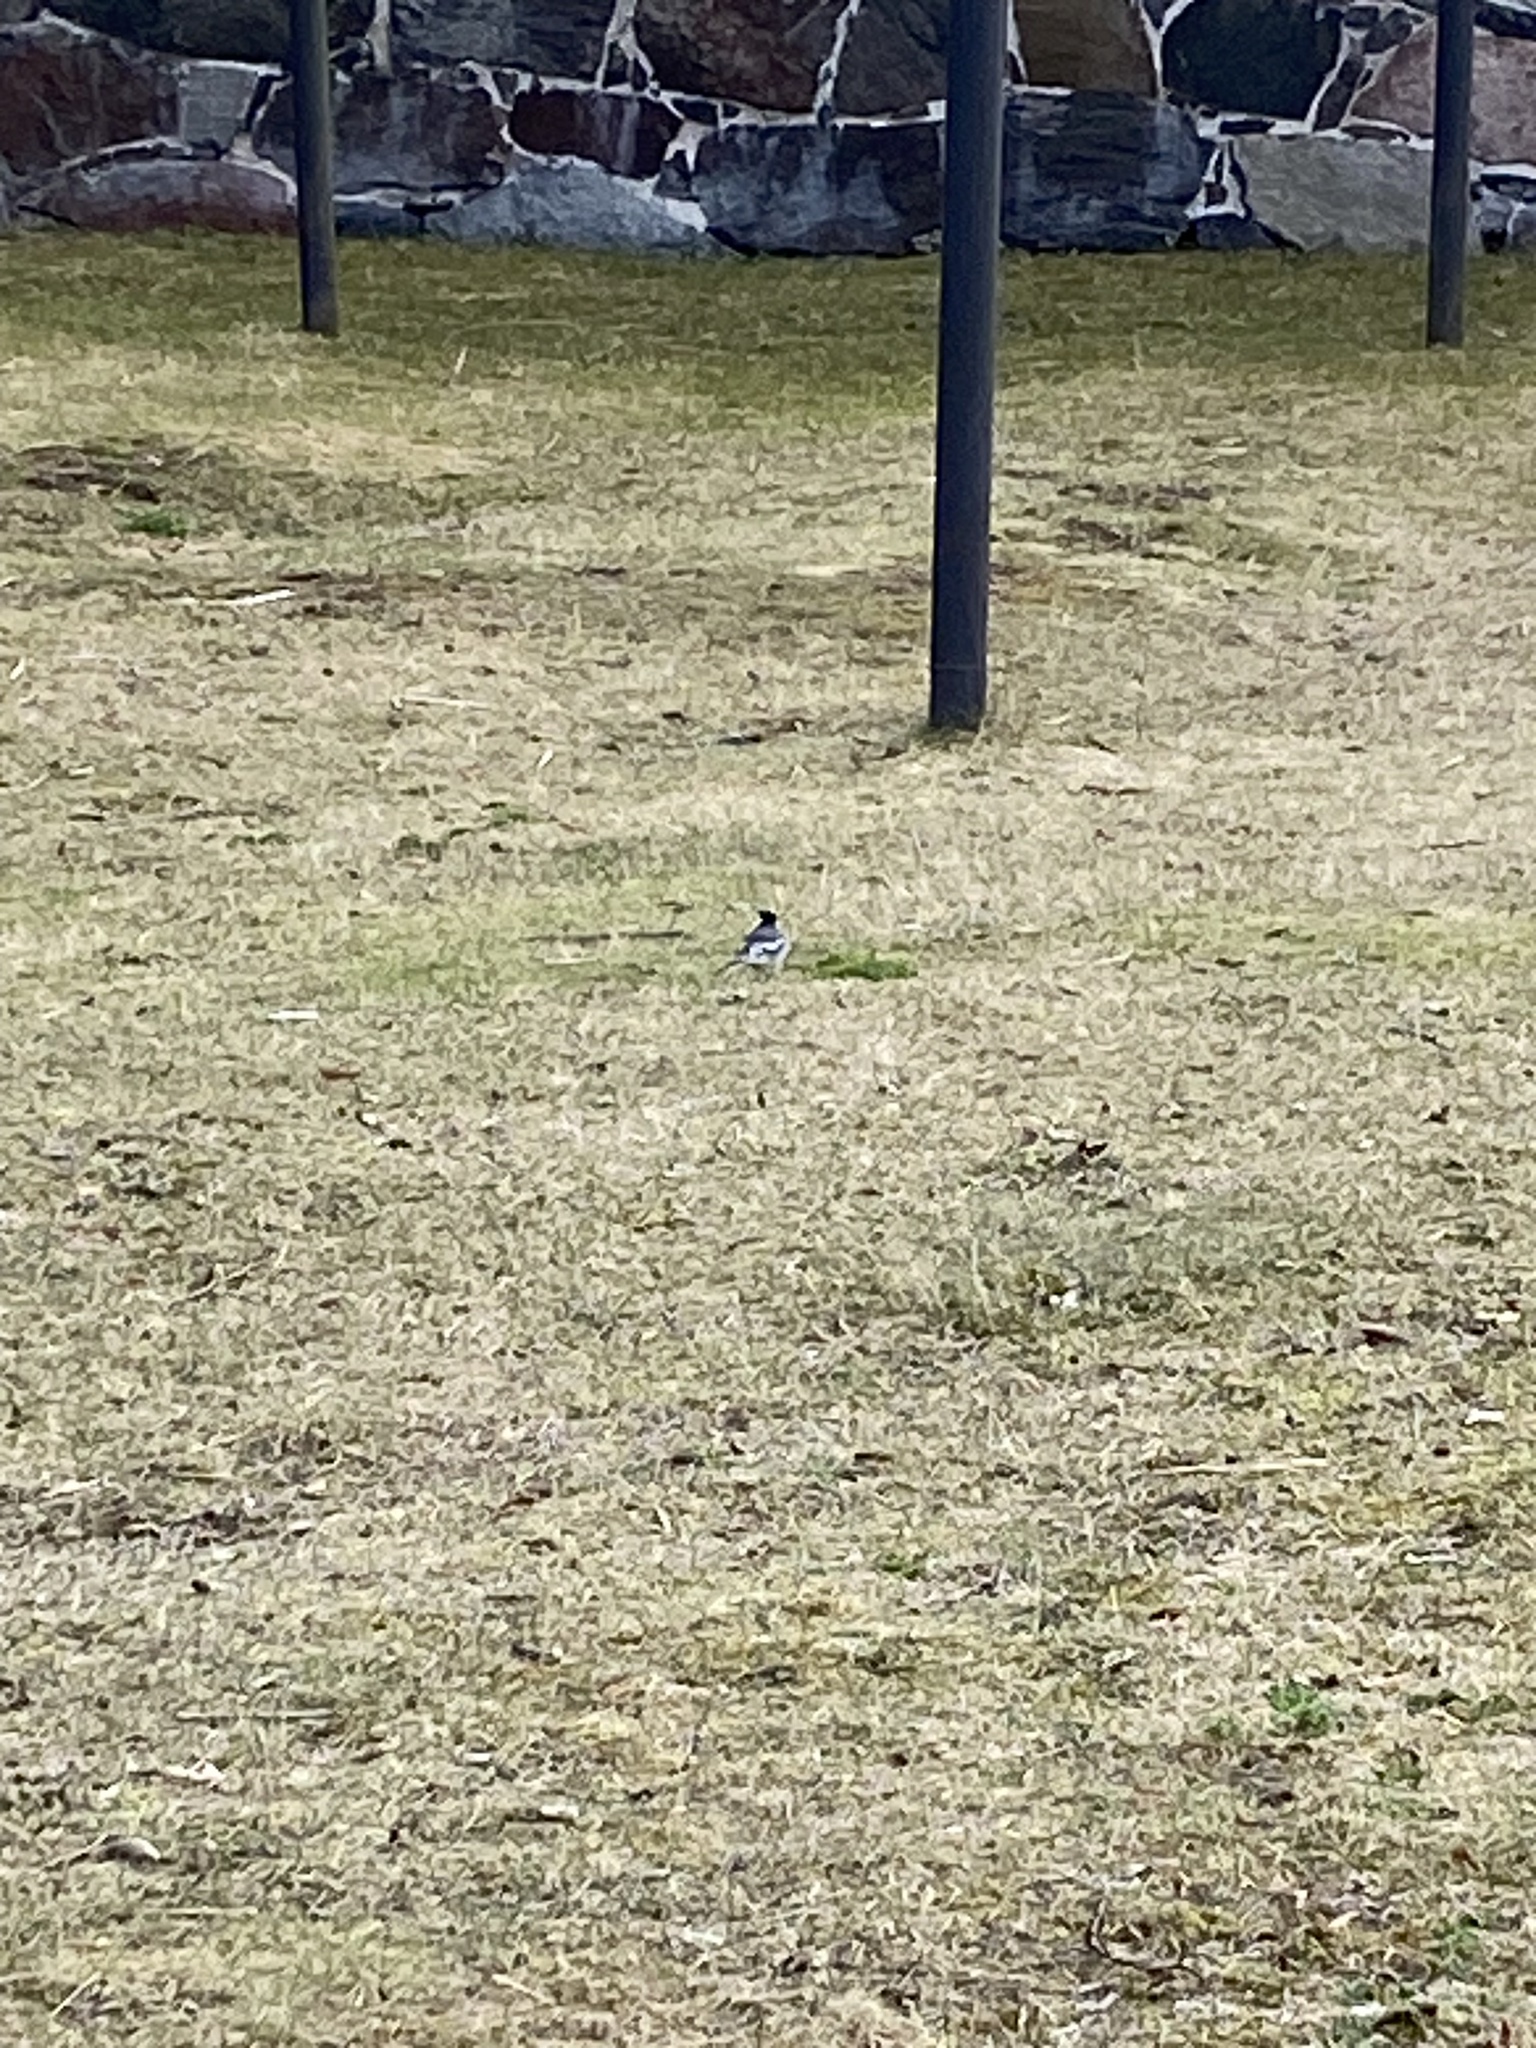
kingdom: Animalia
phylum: Chordata
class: Aves
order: Passeriformes
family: Motacillidae
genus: Motacilla
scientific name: Motacilla alba
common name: White wagtail
